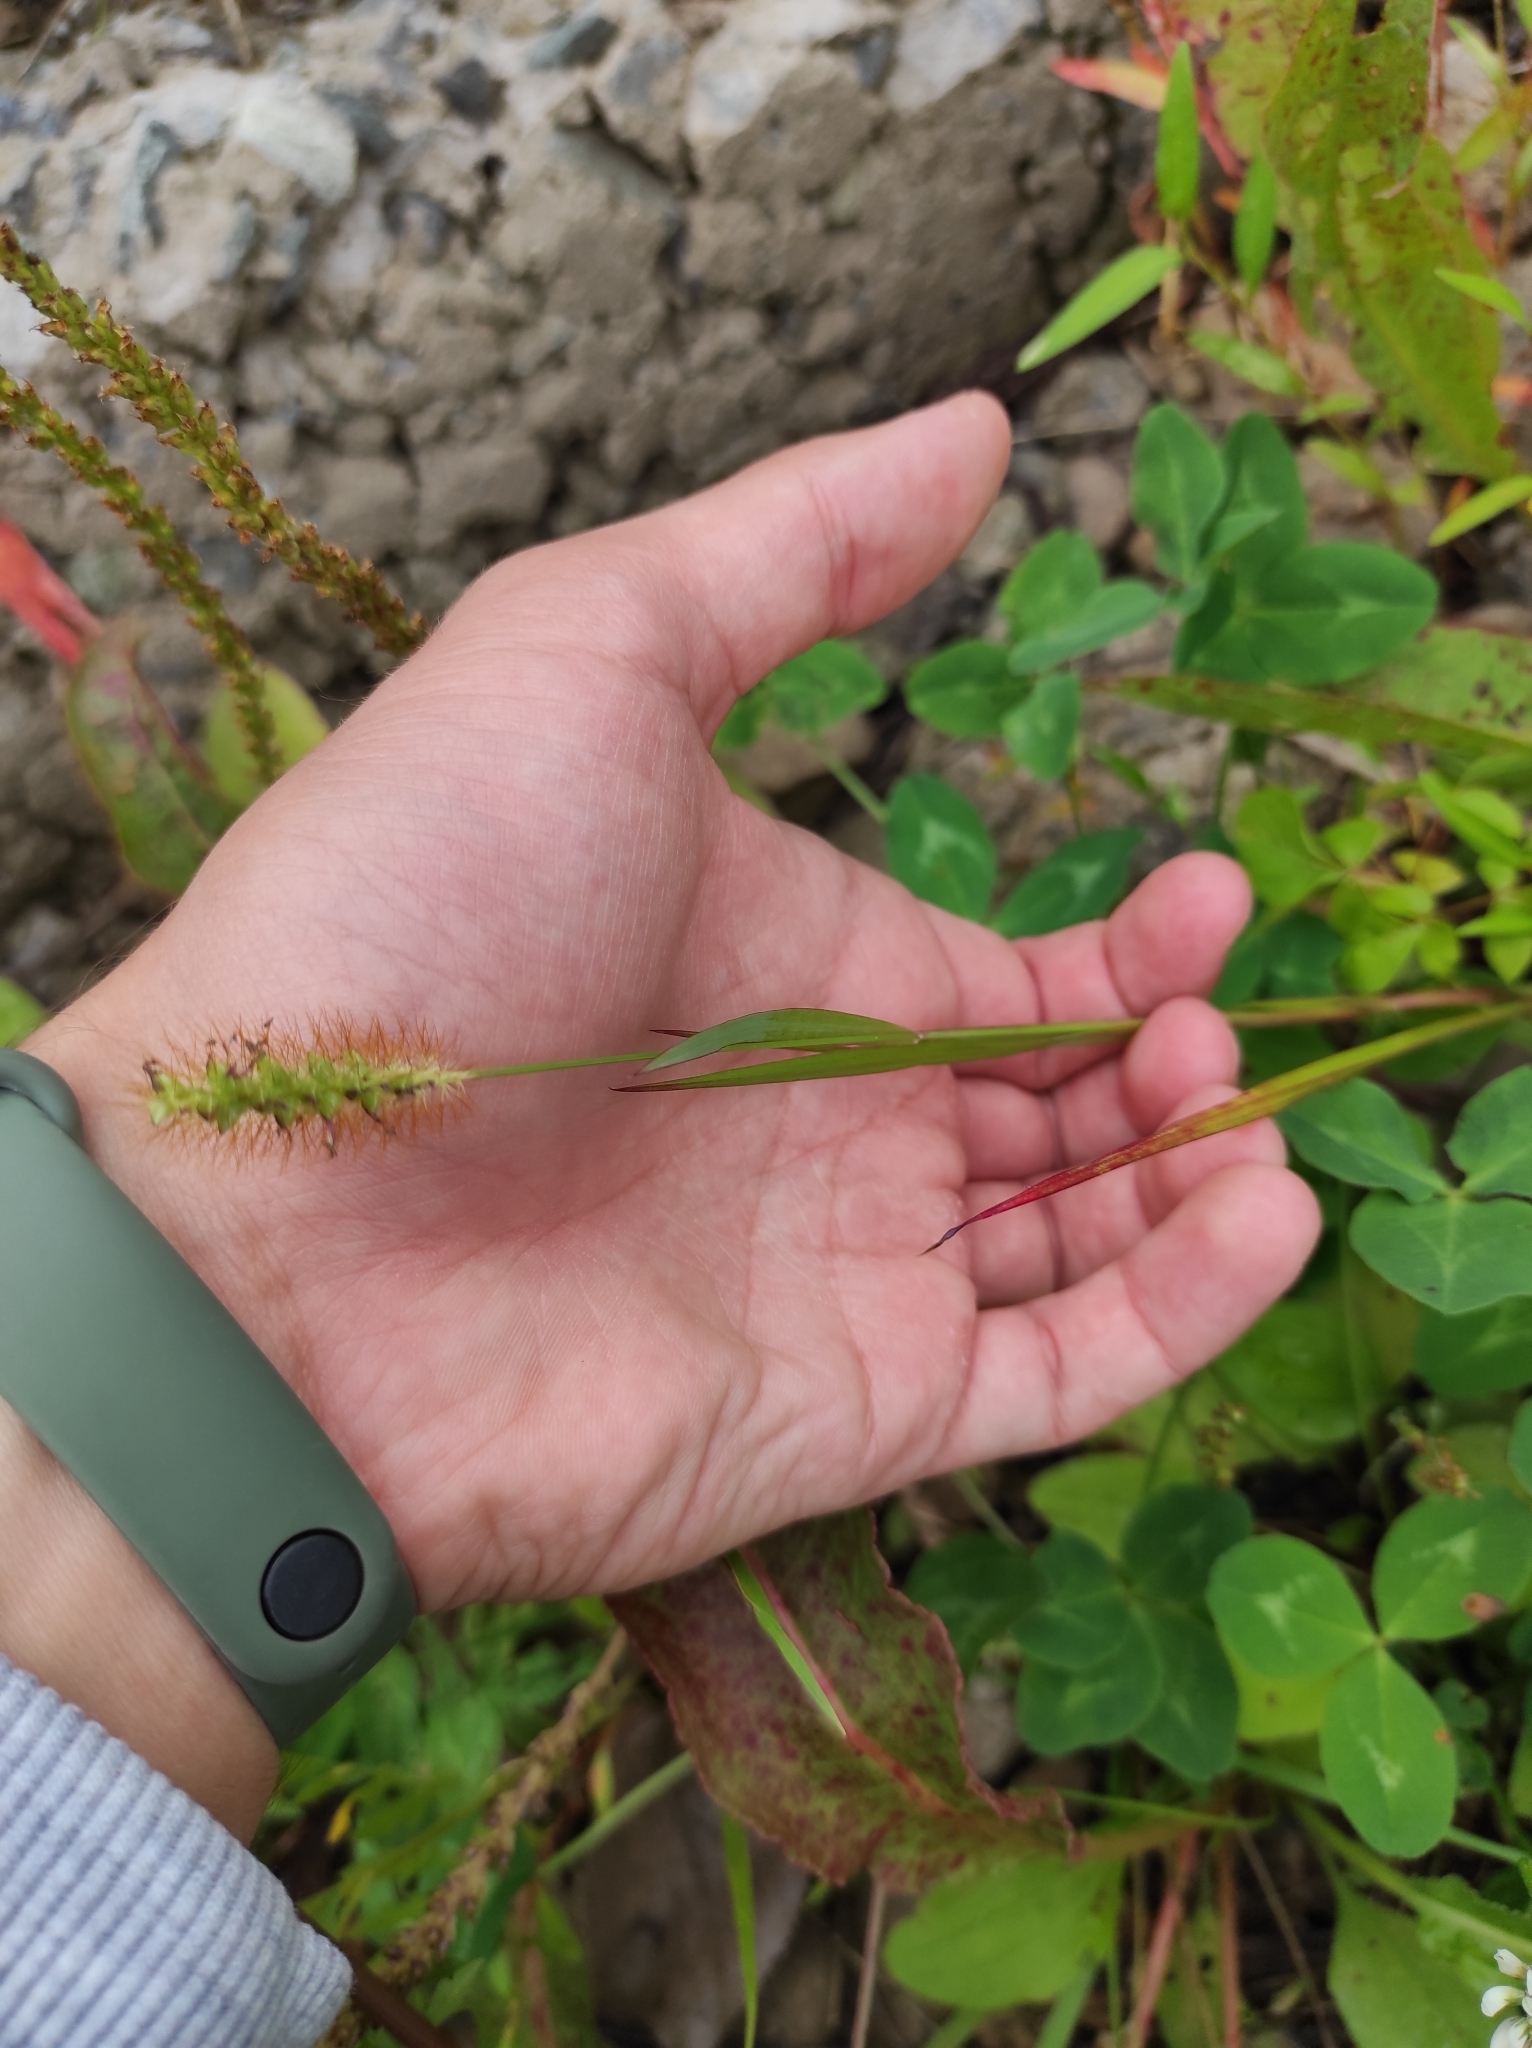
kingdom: Plantae
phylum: Tracheophyta
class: Liliopsida
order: Poales
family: Poaceae
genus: Setaria
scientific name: Setaria pumila
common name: Yellow bristle-grass
